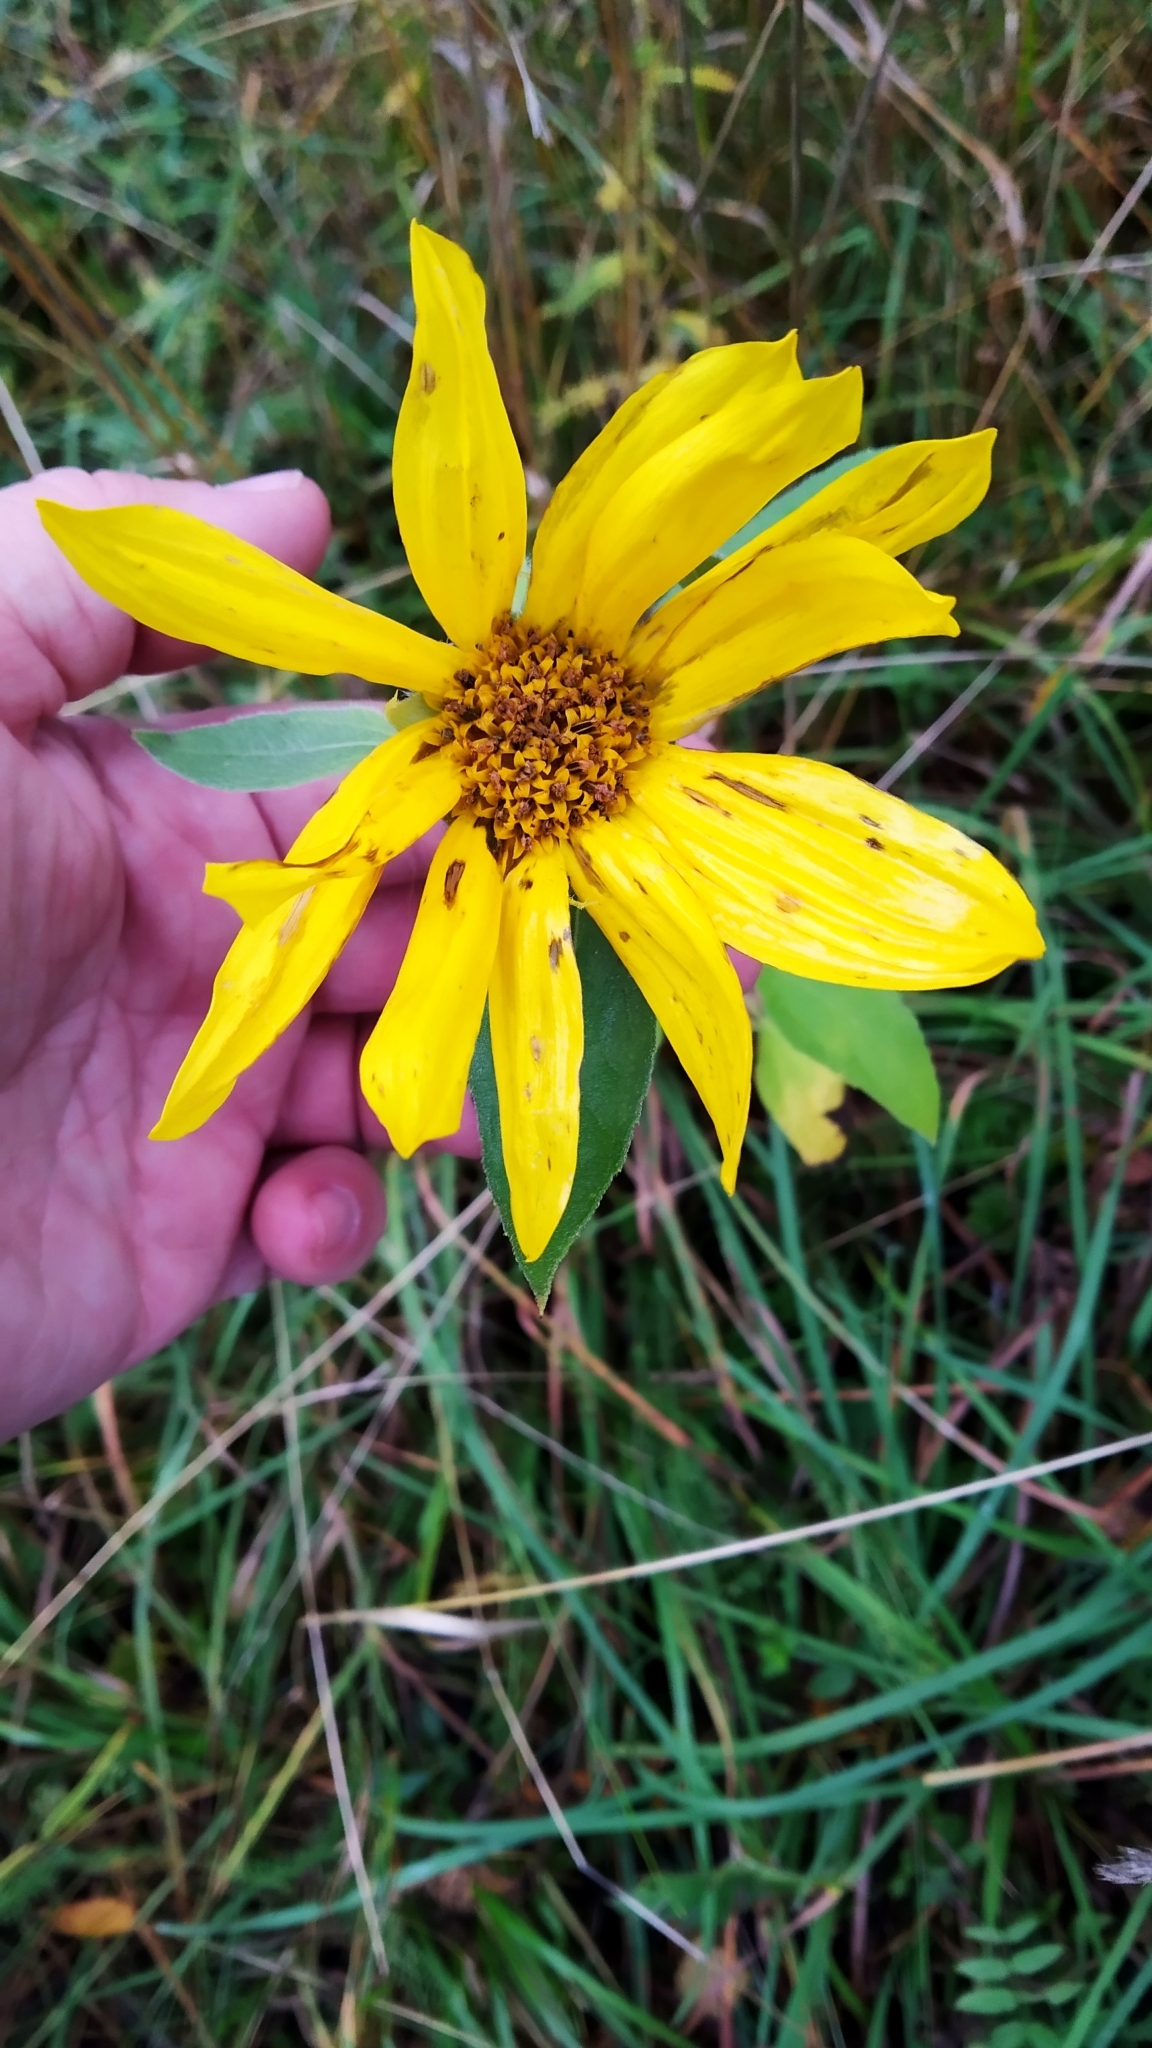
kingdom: Plantae
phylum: Tracheophyta
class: Magnoliopsida
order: Asterales
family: Asteraceae
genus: Helianthus
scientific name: Helianthus tuberosus
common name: Jerusalem artichoke
